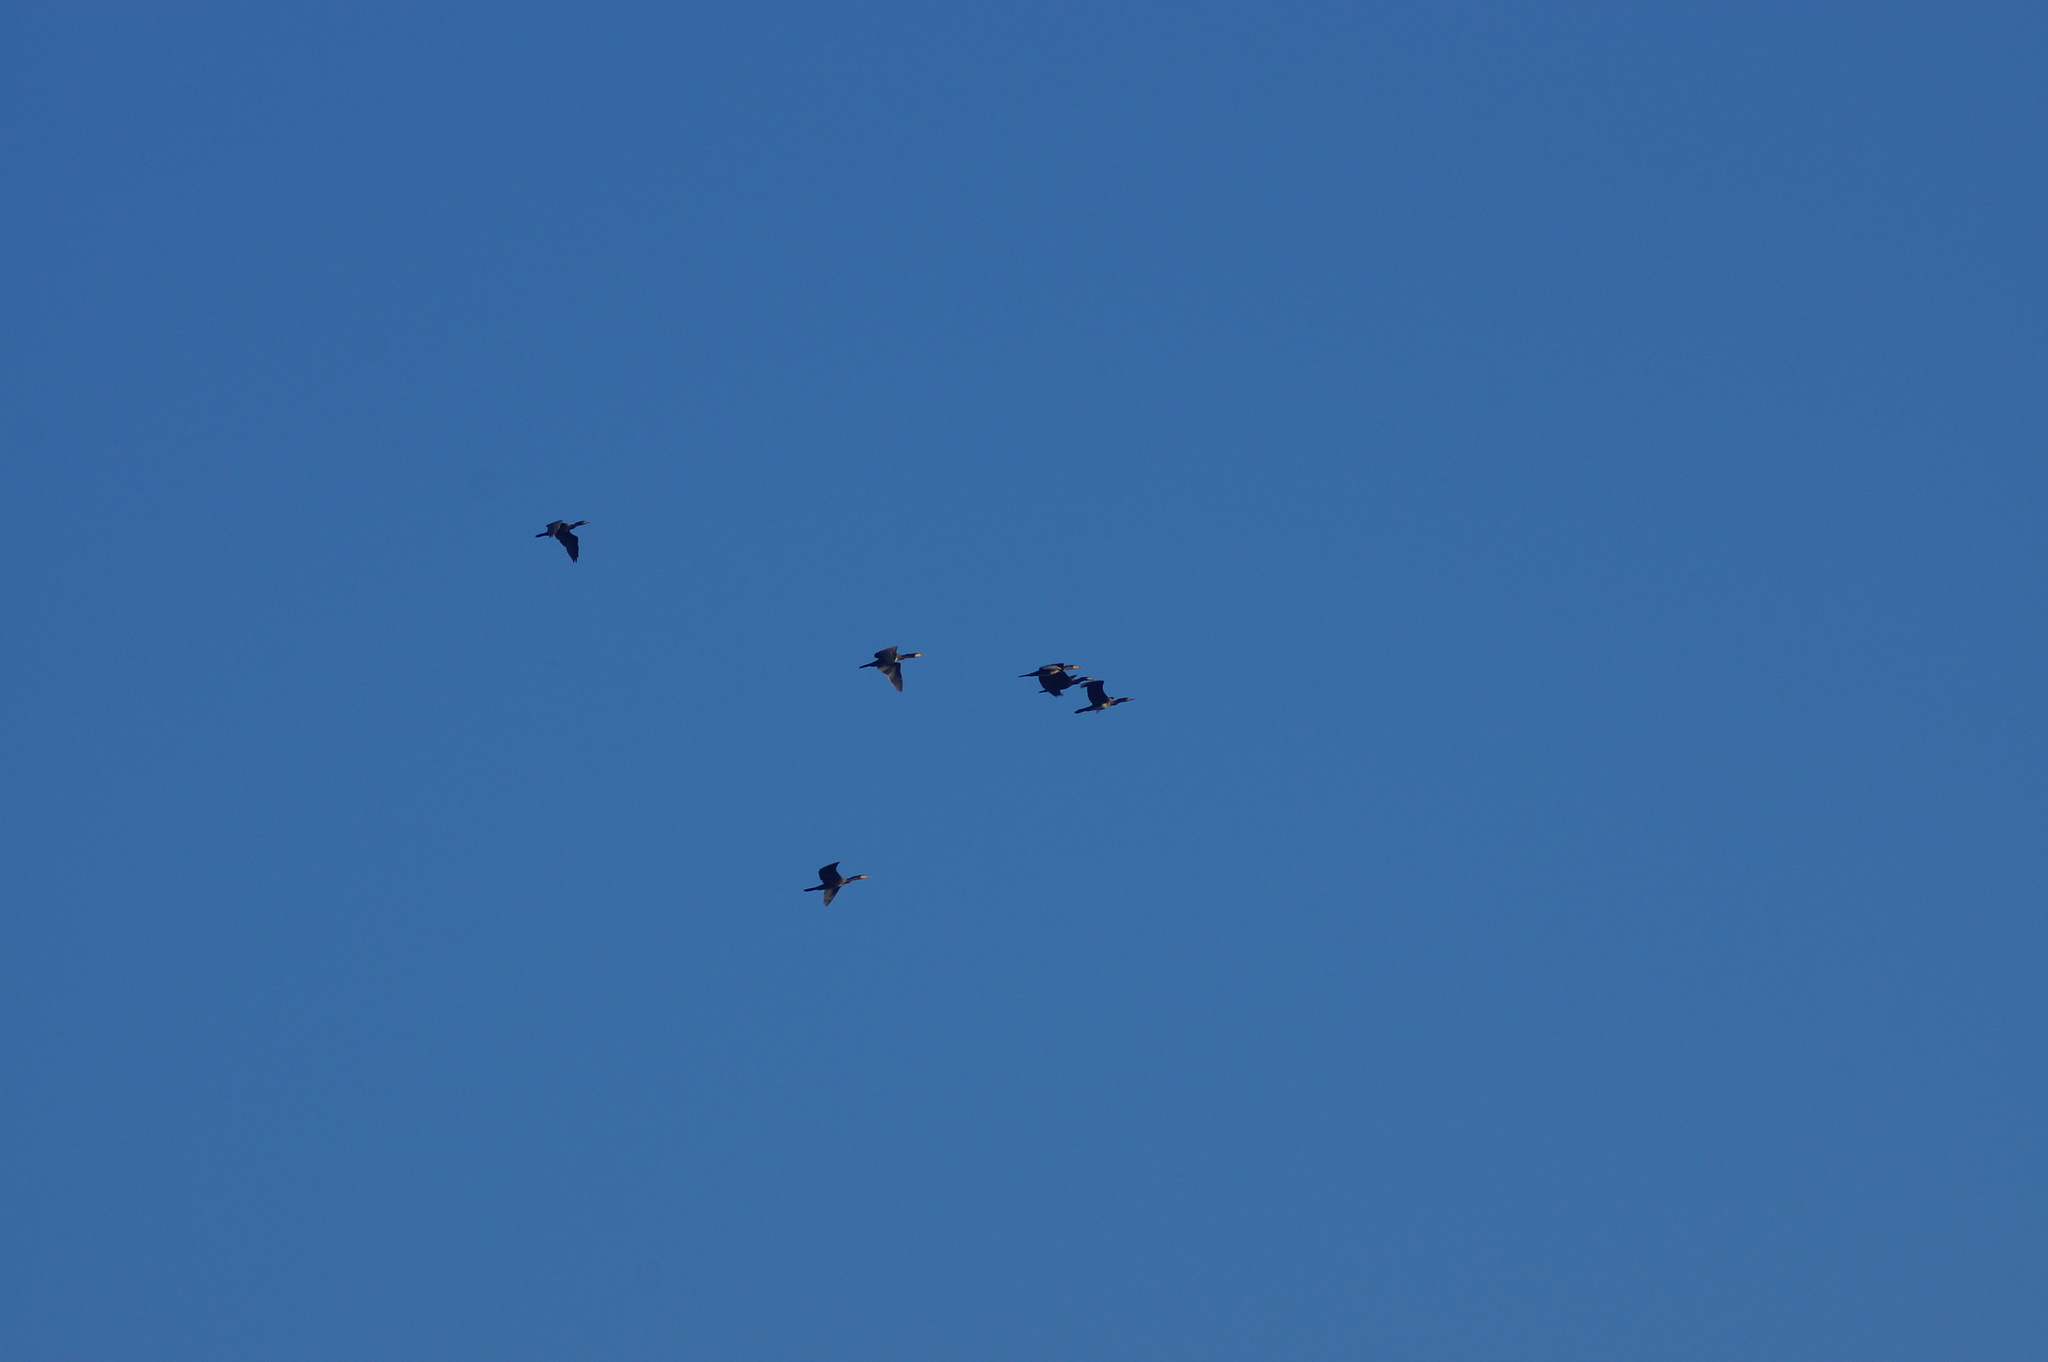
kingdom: Animalia
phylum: Chordata
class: Aves
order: Suliformes
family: Phalacrocoracidae
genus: Phalacrocorax
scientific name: Phalacrocorax carbo
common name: Great cormorant
